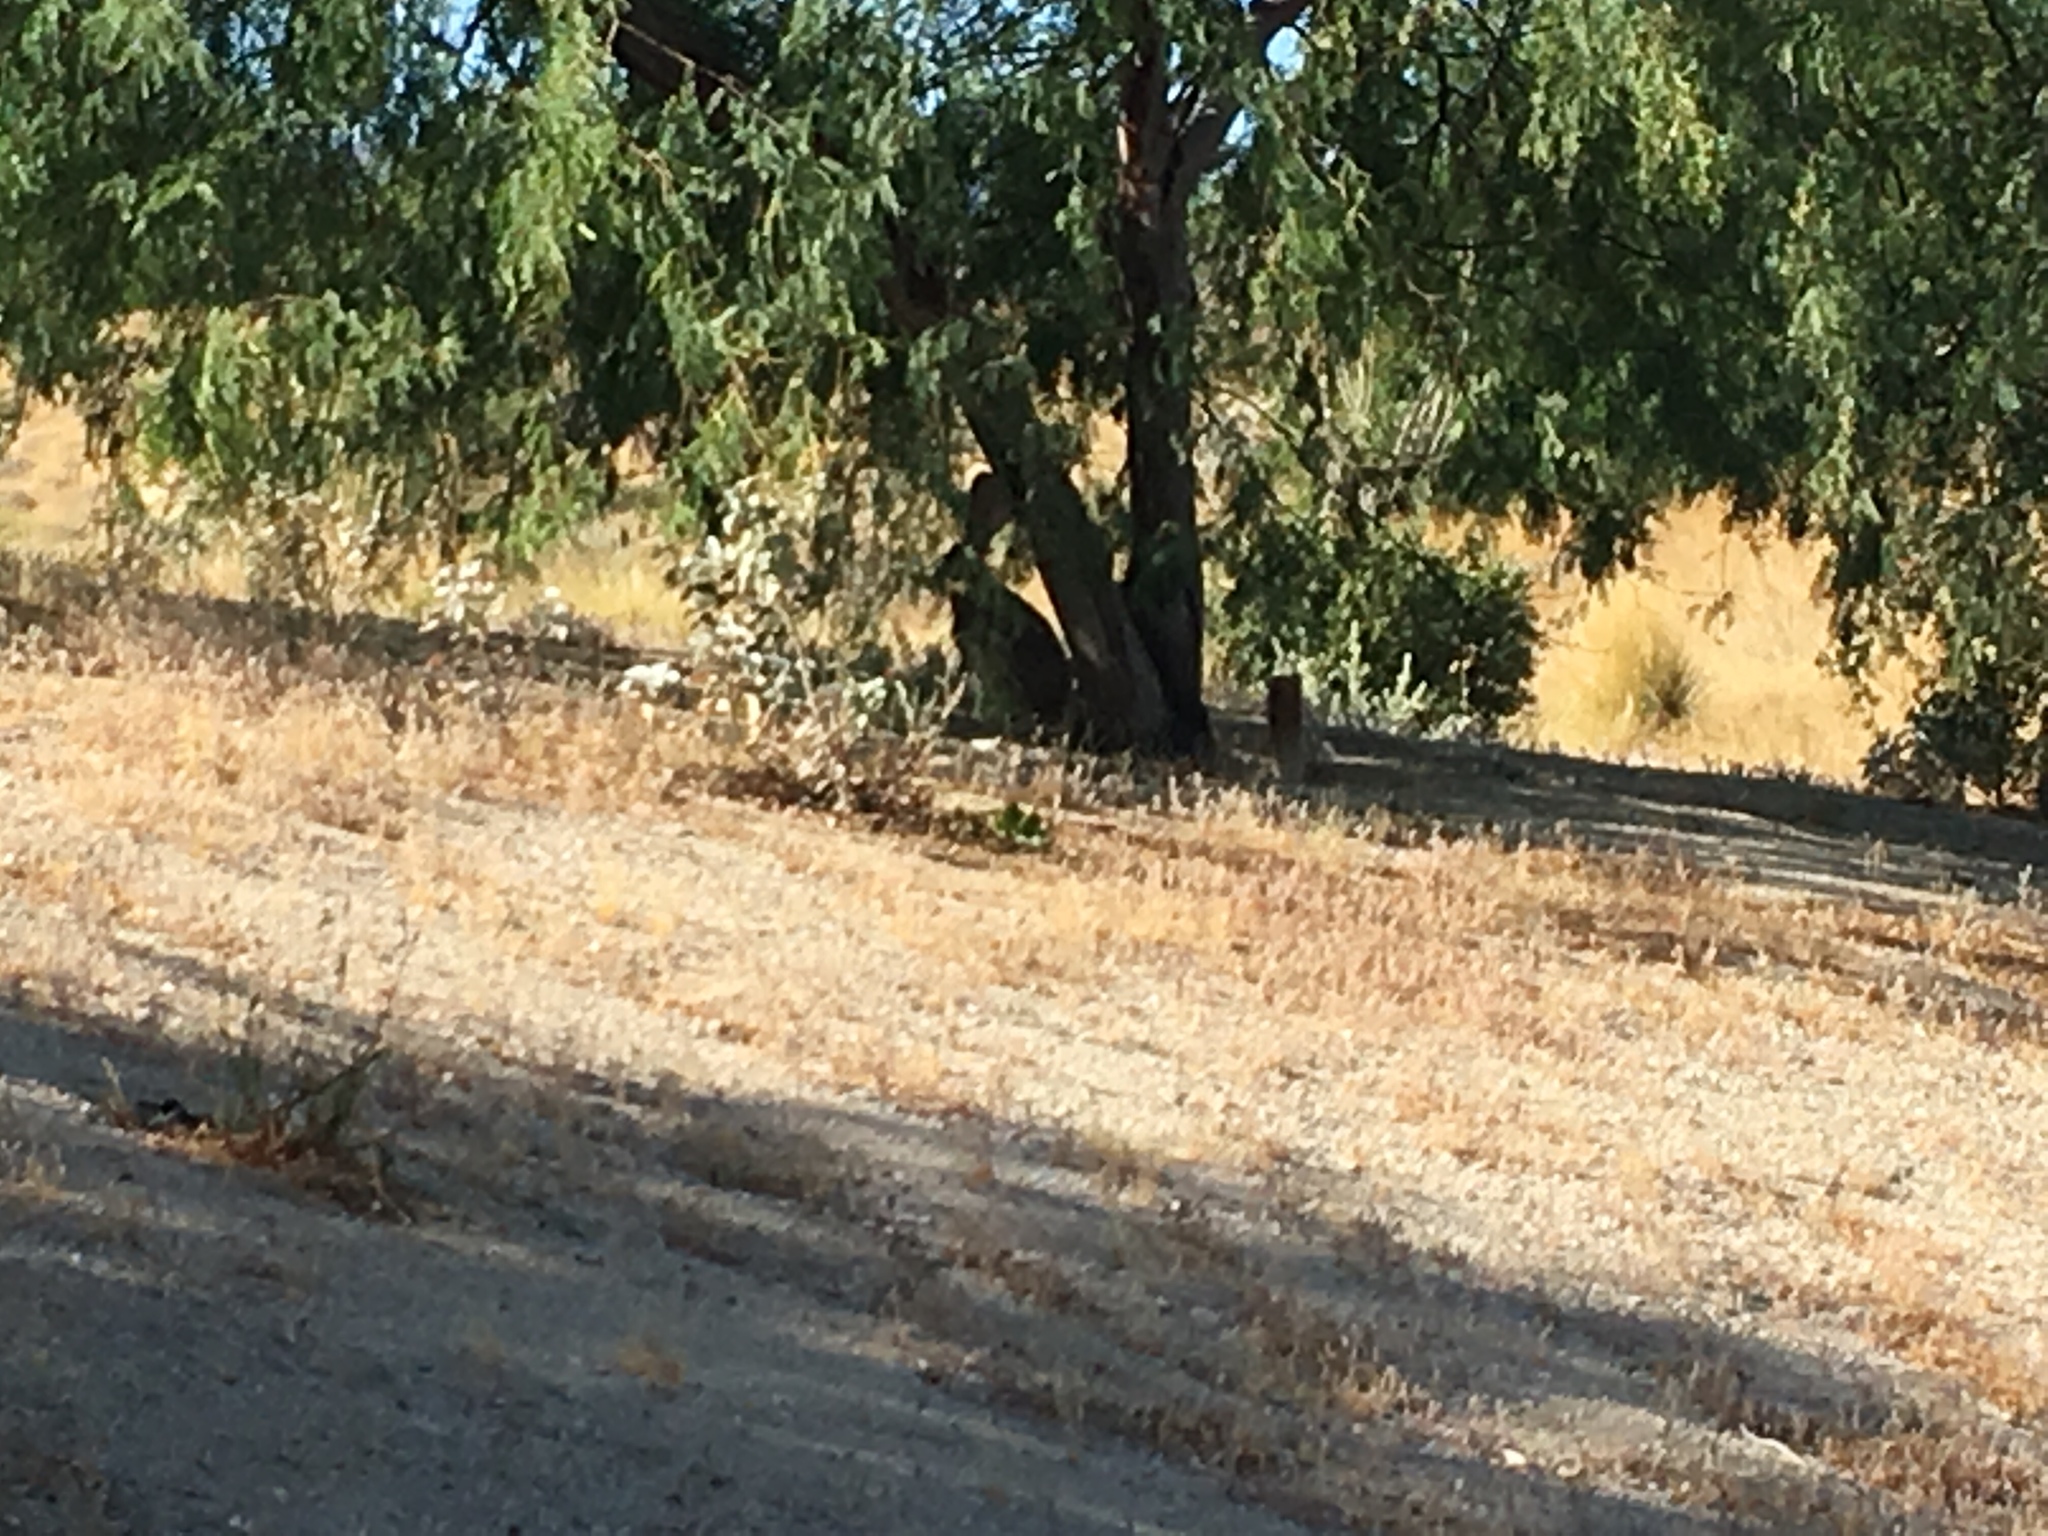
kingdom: Animalia
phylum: Chordata
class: Mammalia
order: Lagomorpha
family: Leporidae
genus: Lepus
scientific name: Lepus californicus
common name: Black-tailed jackrabbit
